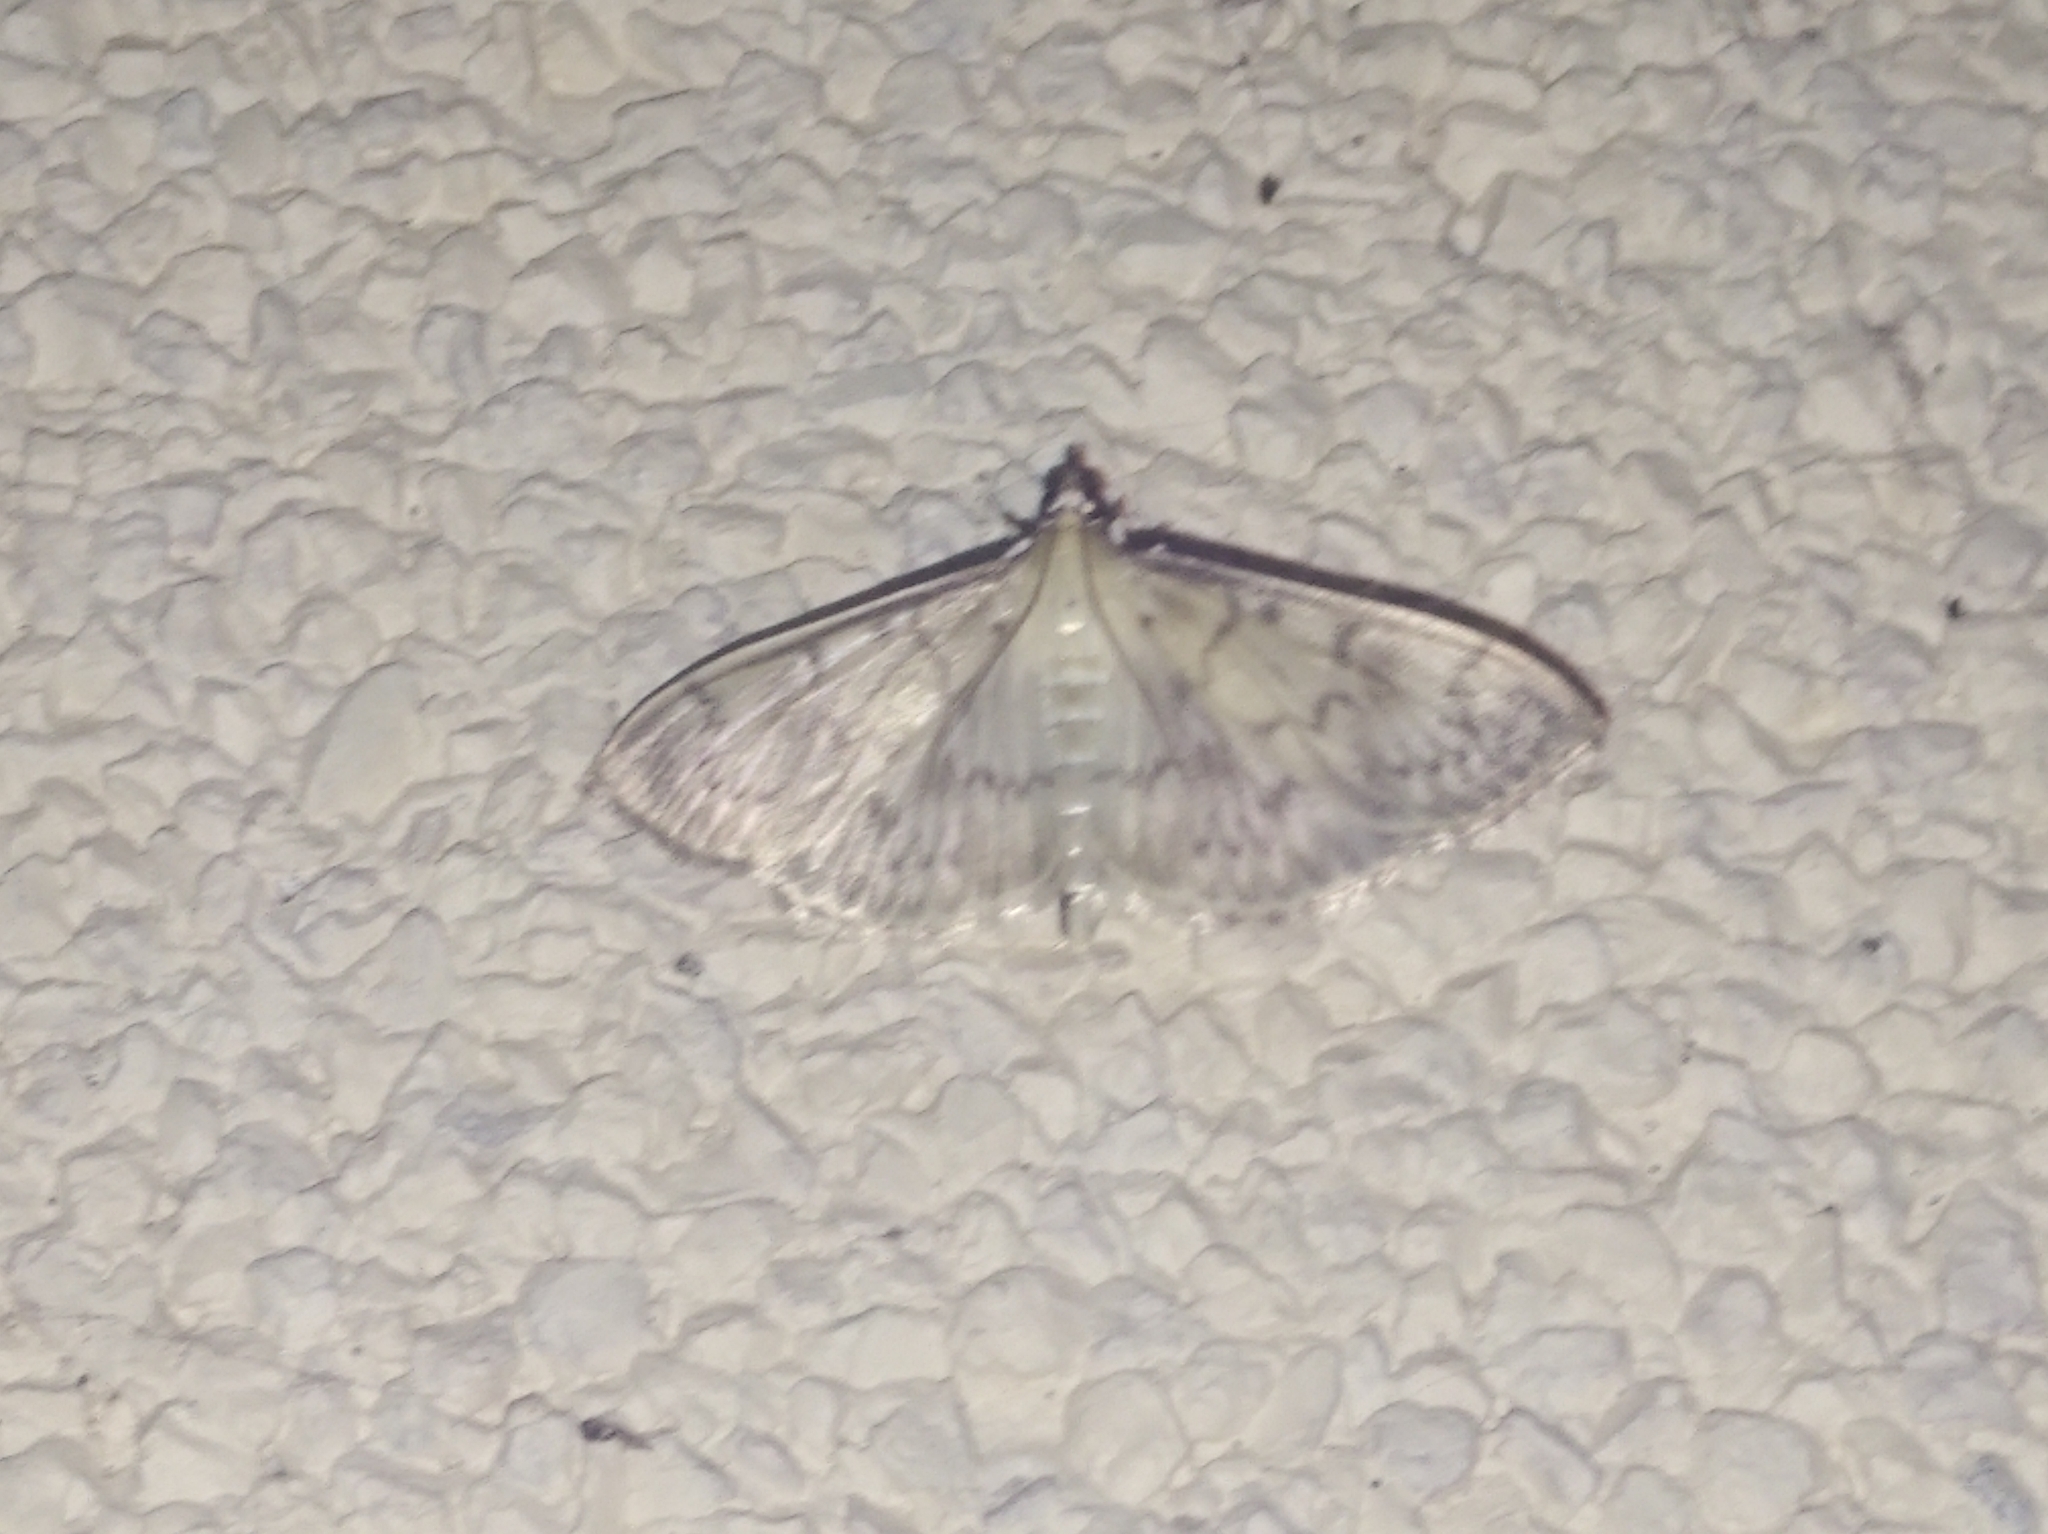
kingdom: Animalia
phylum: Arthropoda
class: Insecta
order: Lepidoptera
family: Crambidae
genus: Patania
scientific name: Patania ruralis
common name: Mother of pearl
